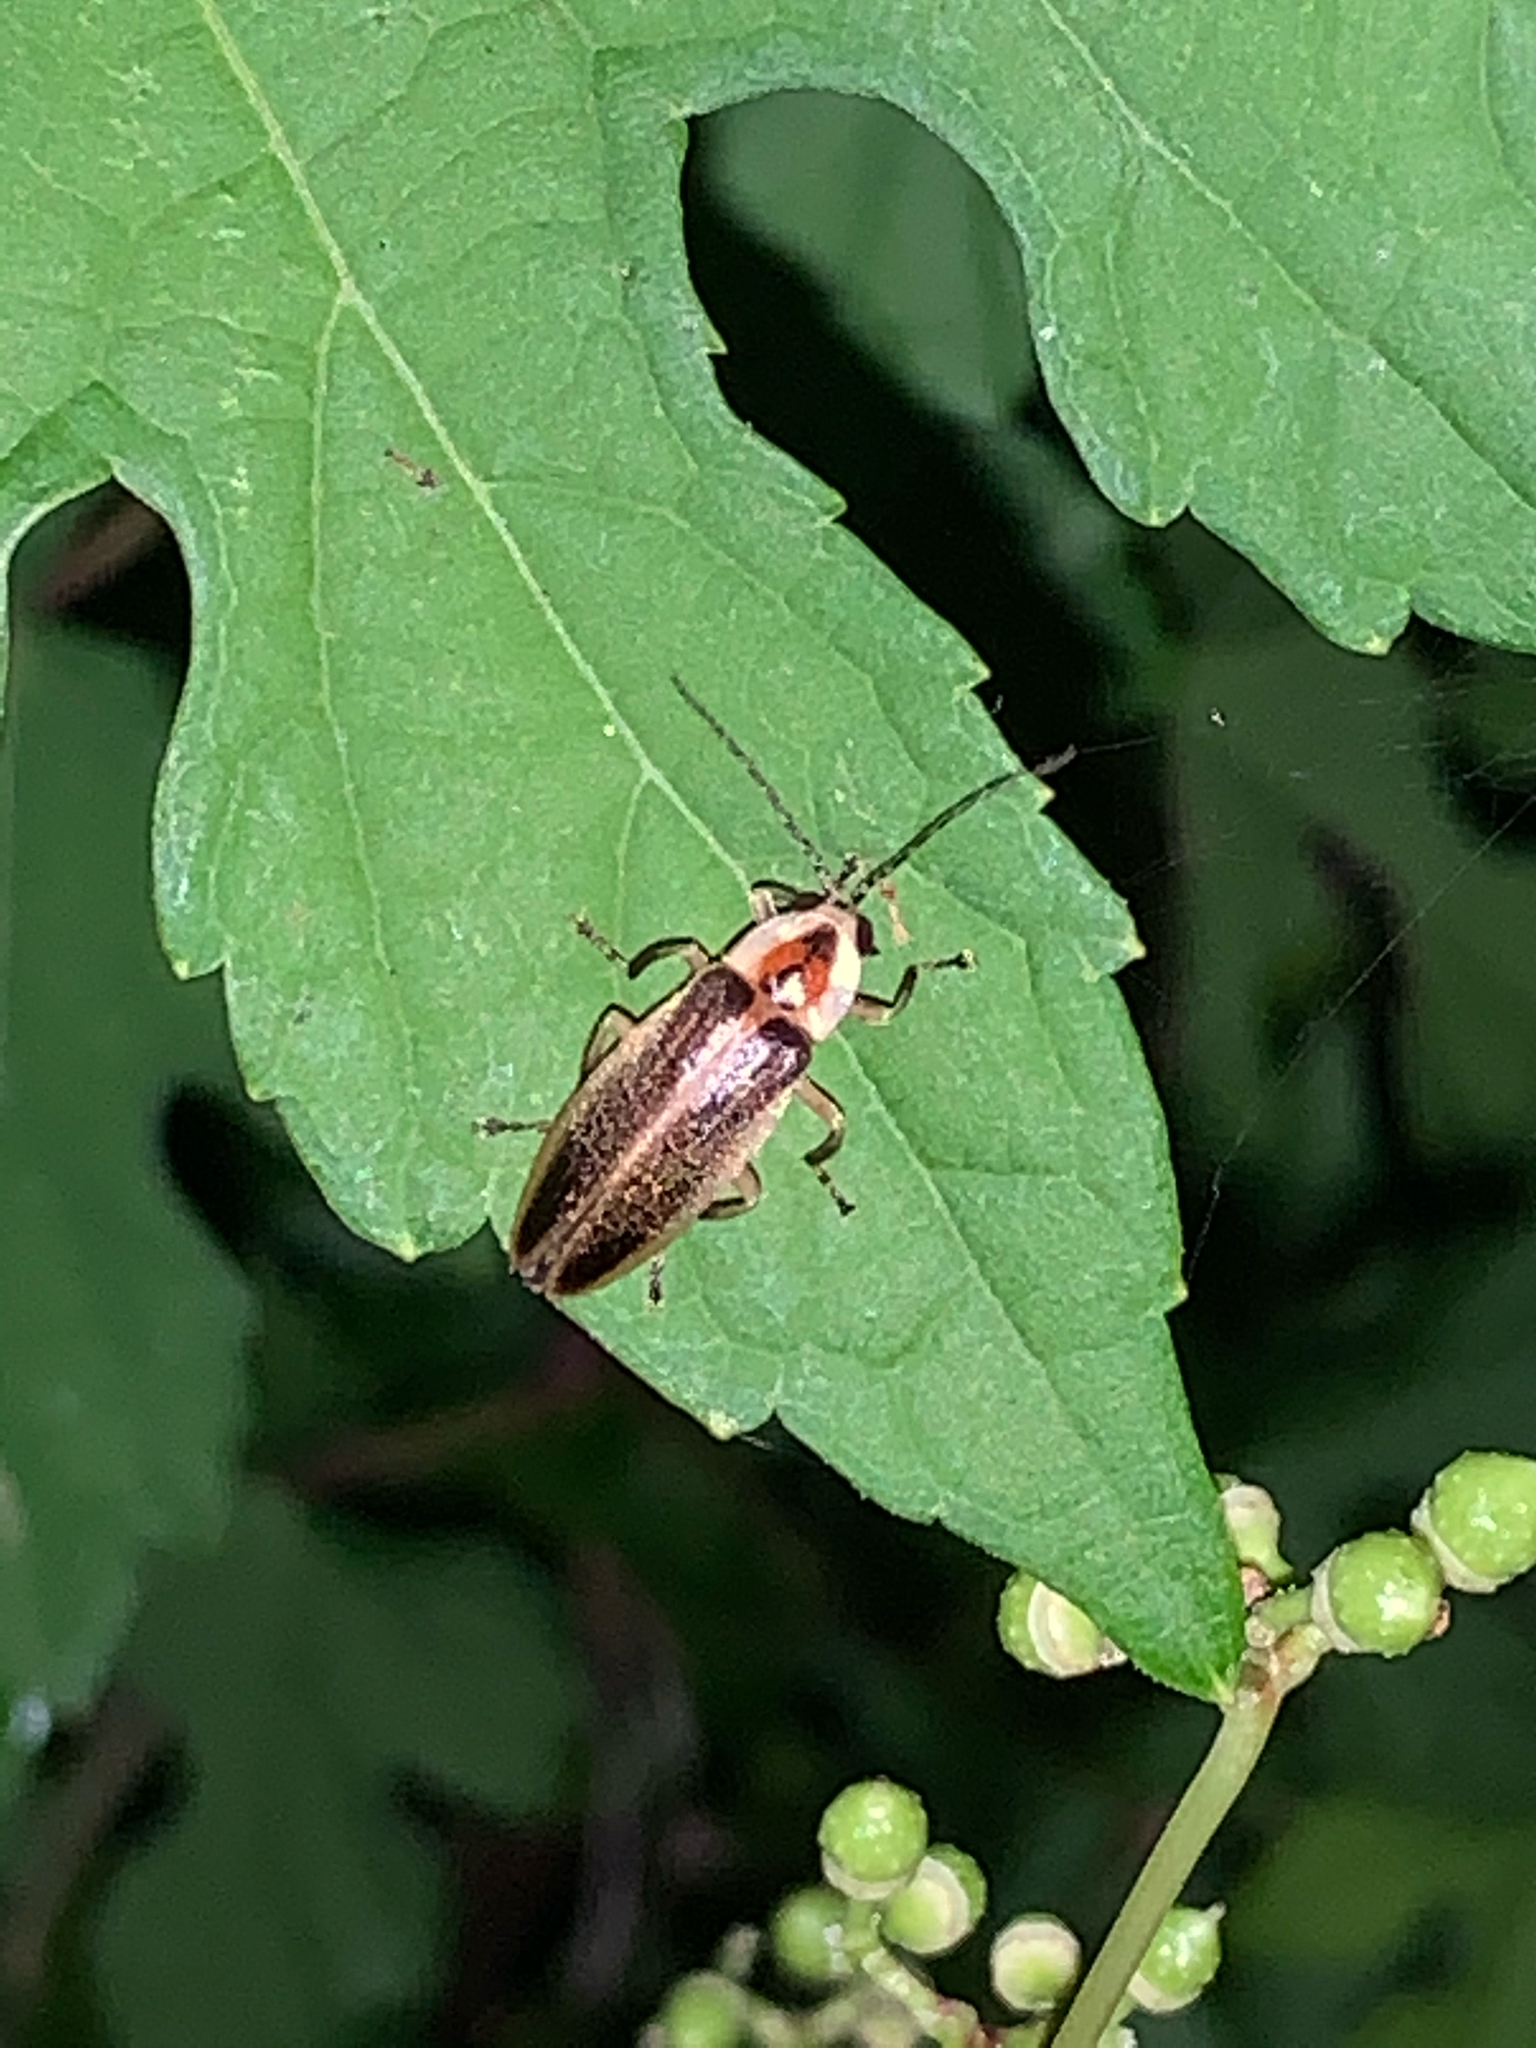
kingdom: Animalia
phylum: Arthropoda
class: Insecta
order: Coleoptera
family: Lampyridae
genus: Photuris
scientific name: Photuris
